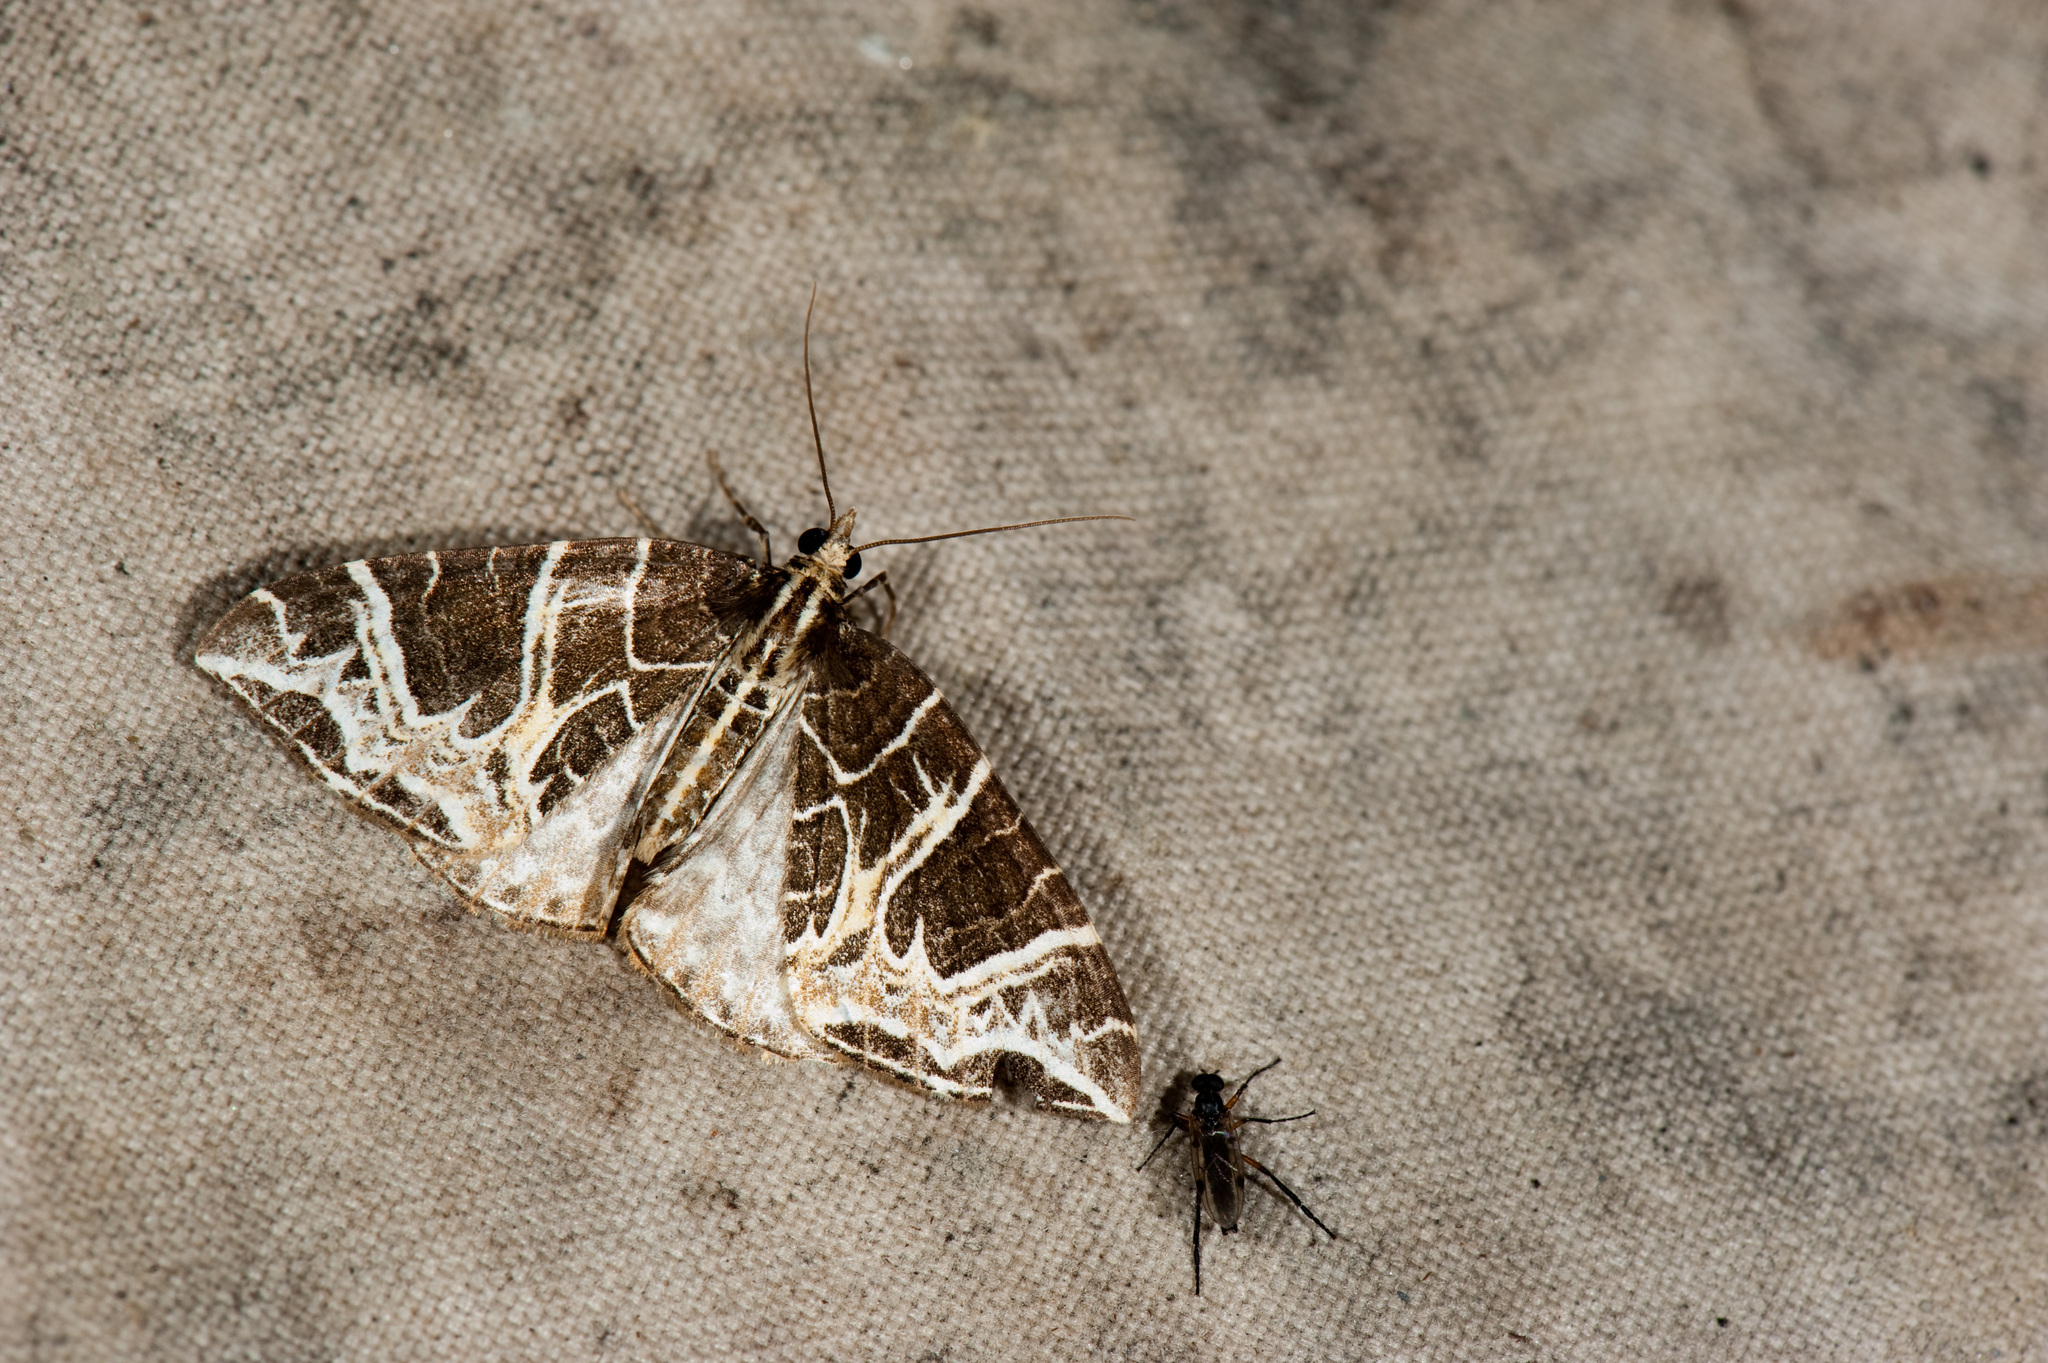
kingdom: Animalia
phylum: Arthropoda
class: Insecta
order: Lepidoptera
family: Geometridae
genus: Ecliptopera
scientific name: Ecliptopera delecta
